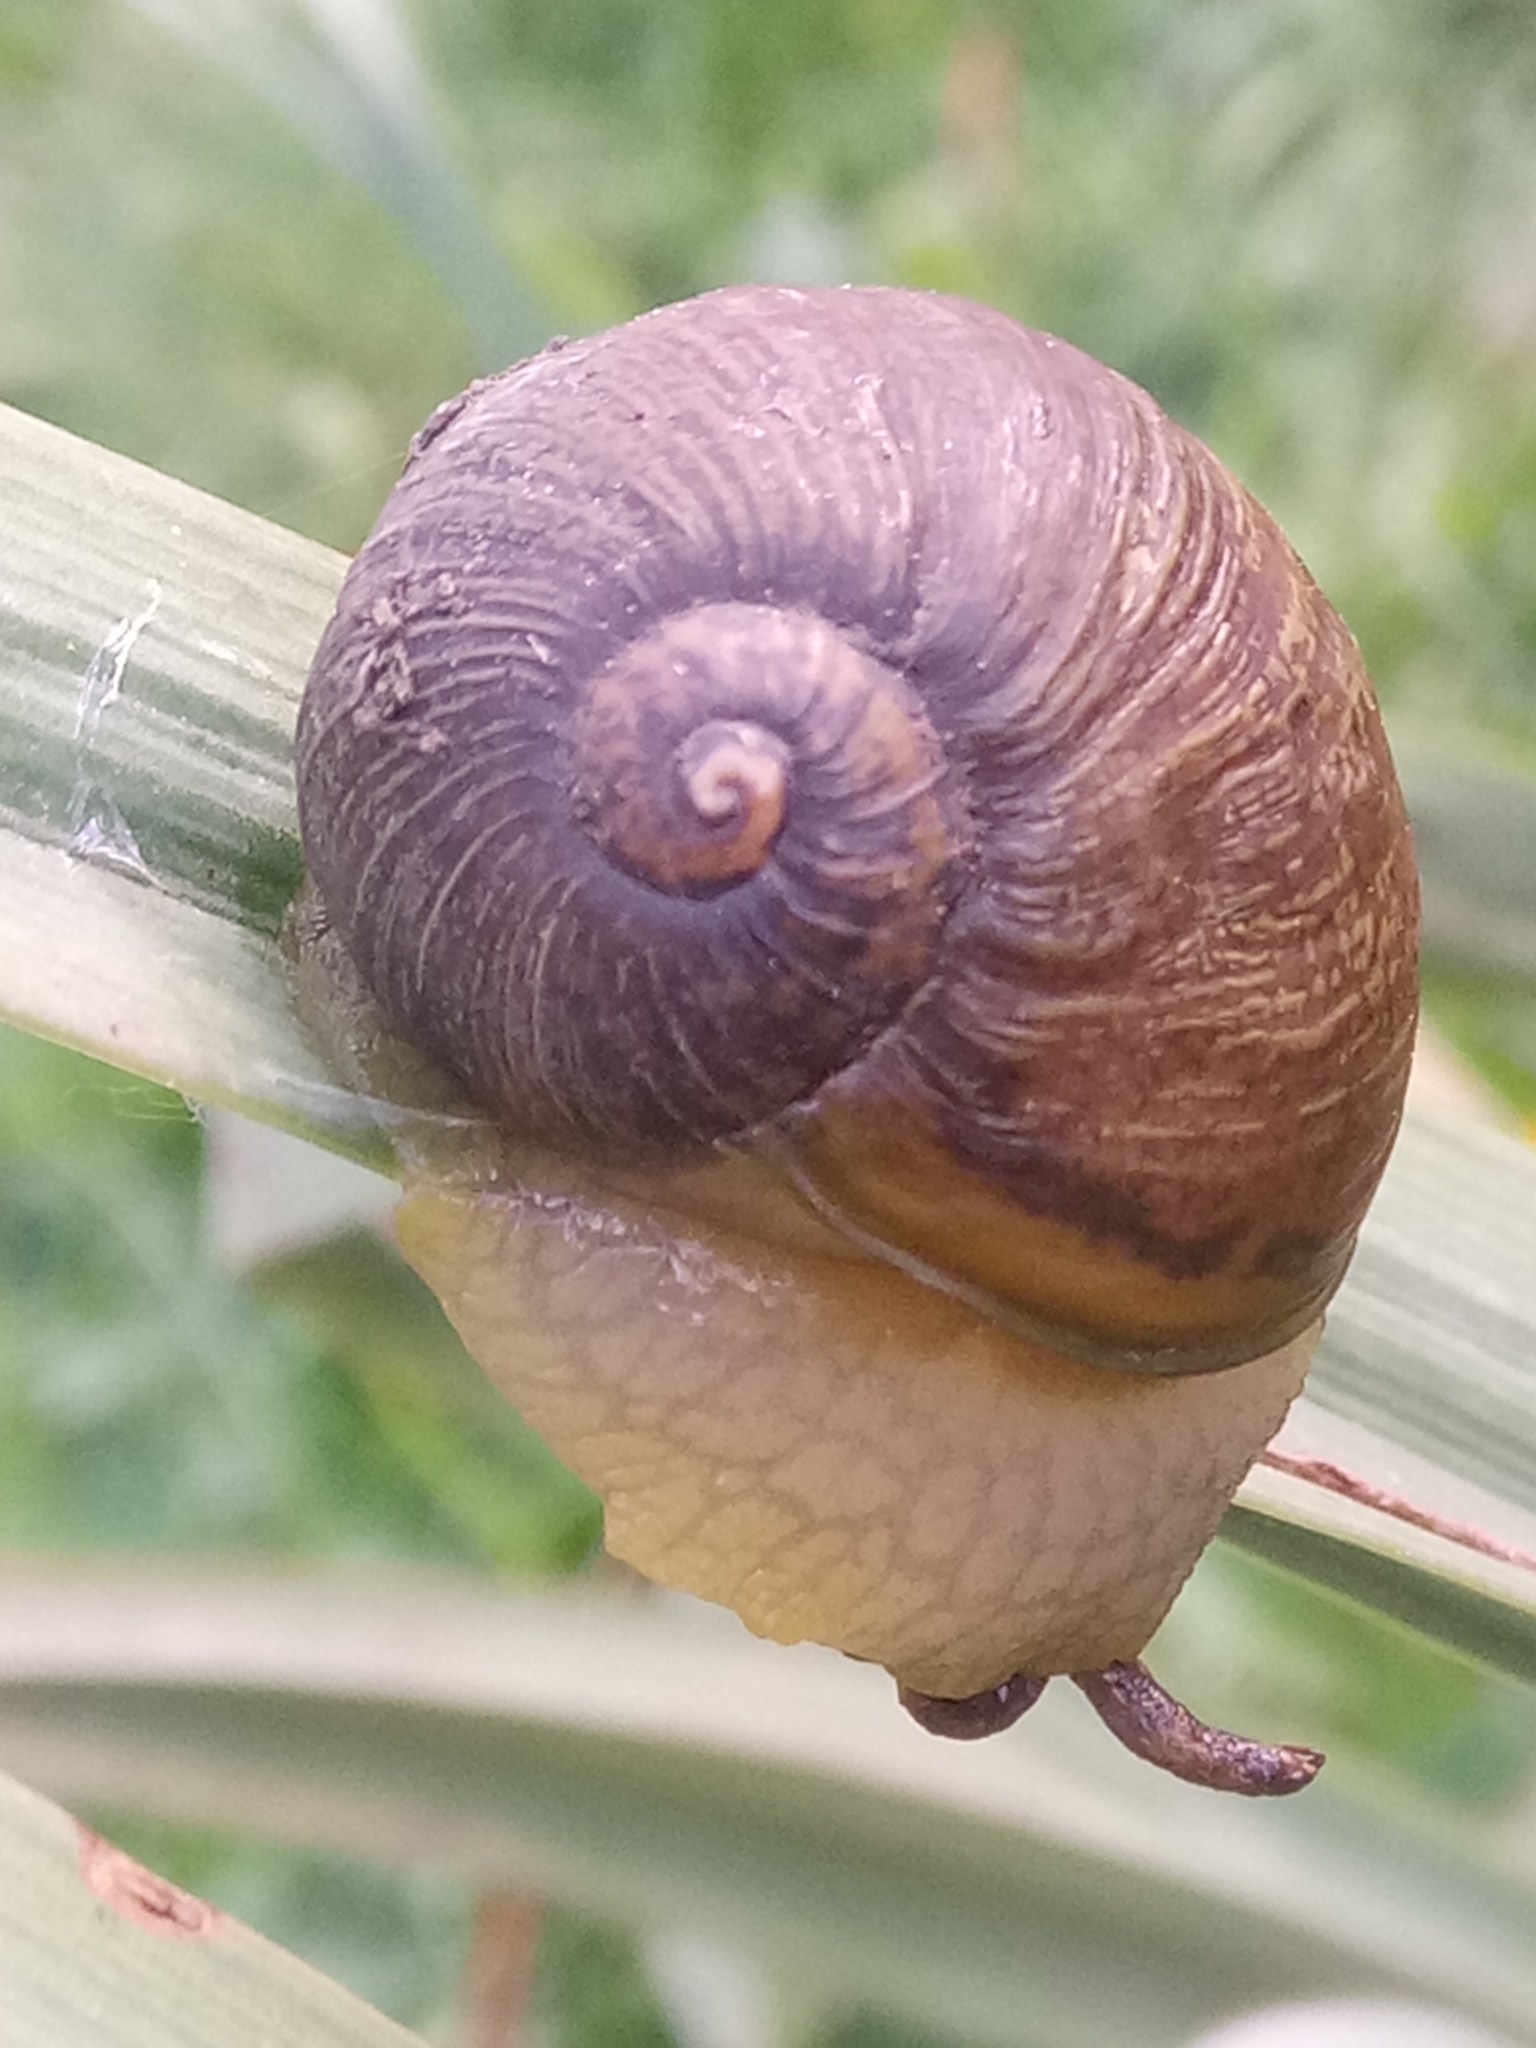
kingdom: Animalia
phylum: Mollusca
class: Gastropoda
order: Stylommatophora
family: Helicidae
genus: Cantareus
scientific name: Cantareus apertus
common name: Green gardensnail
